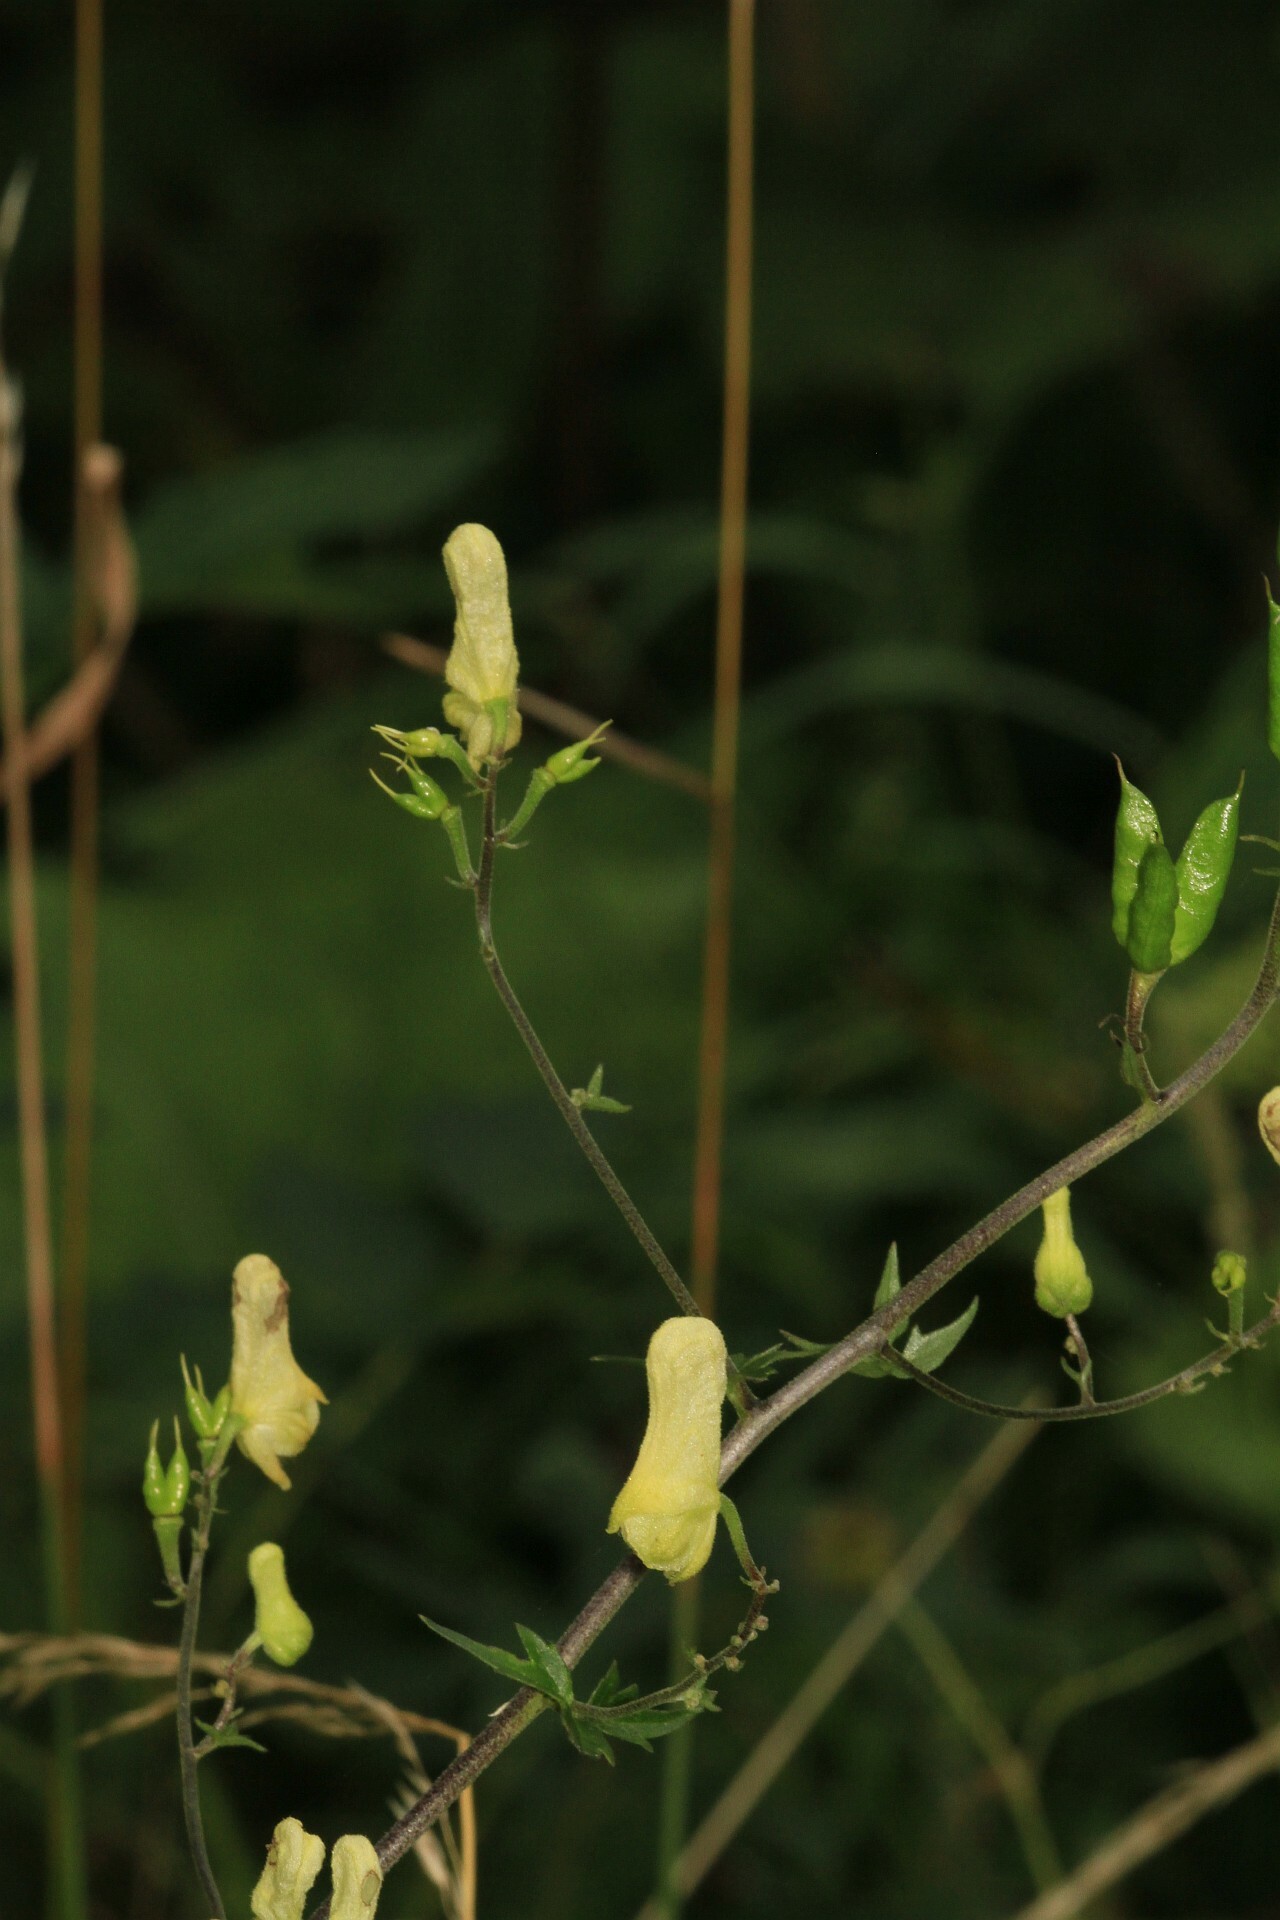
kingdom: Plantae
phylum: Tracheophyta
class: Magnoliopsida
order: Ranunculales
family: Ranunculaceae
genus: Aconitum
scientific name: Aconitum lycoctonum
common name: Wolf's-bane
